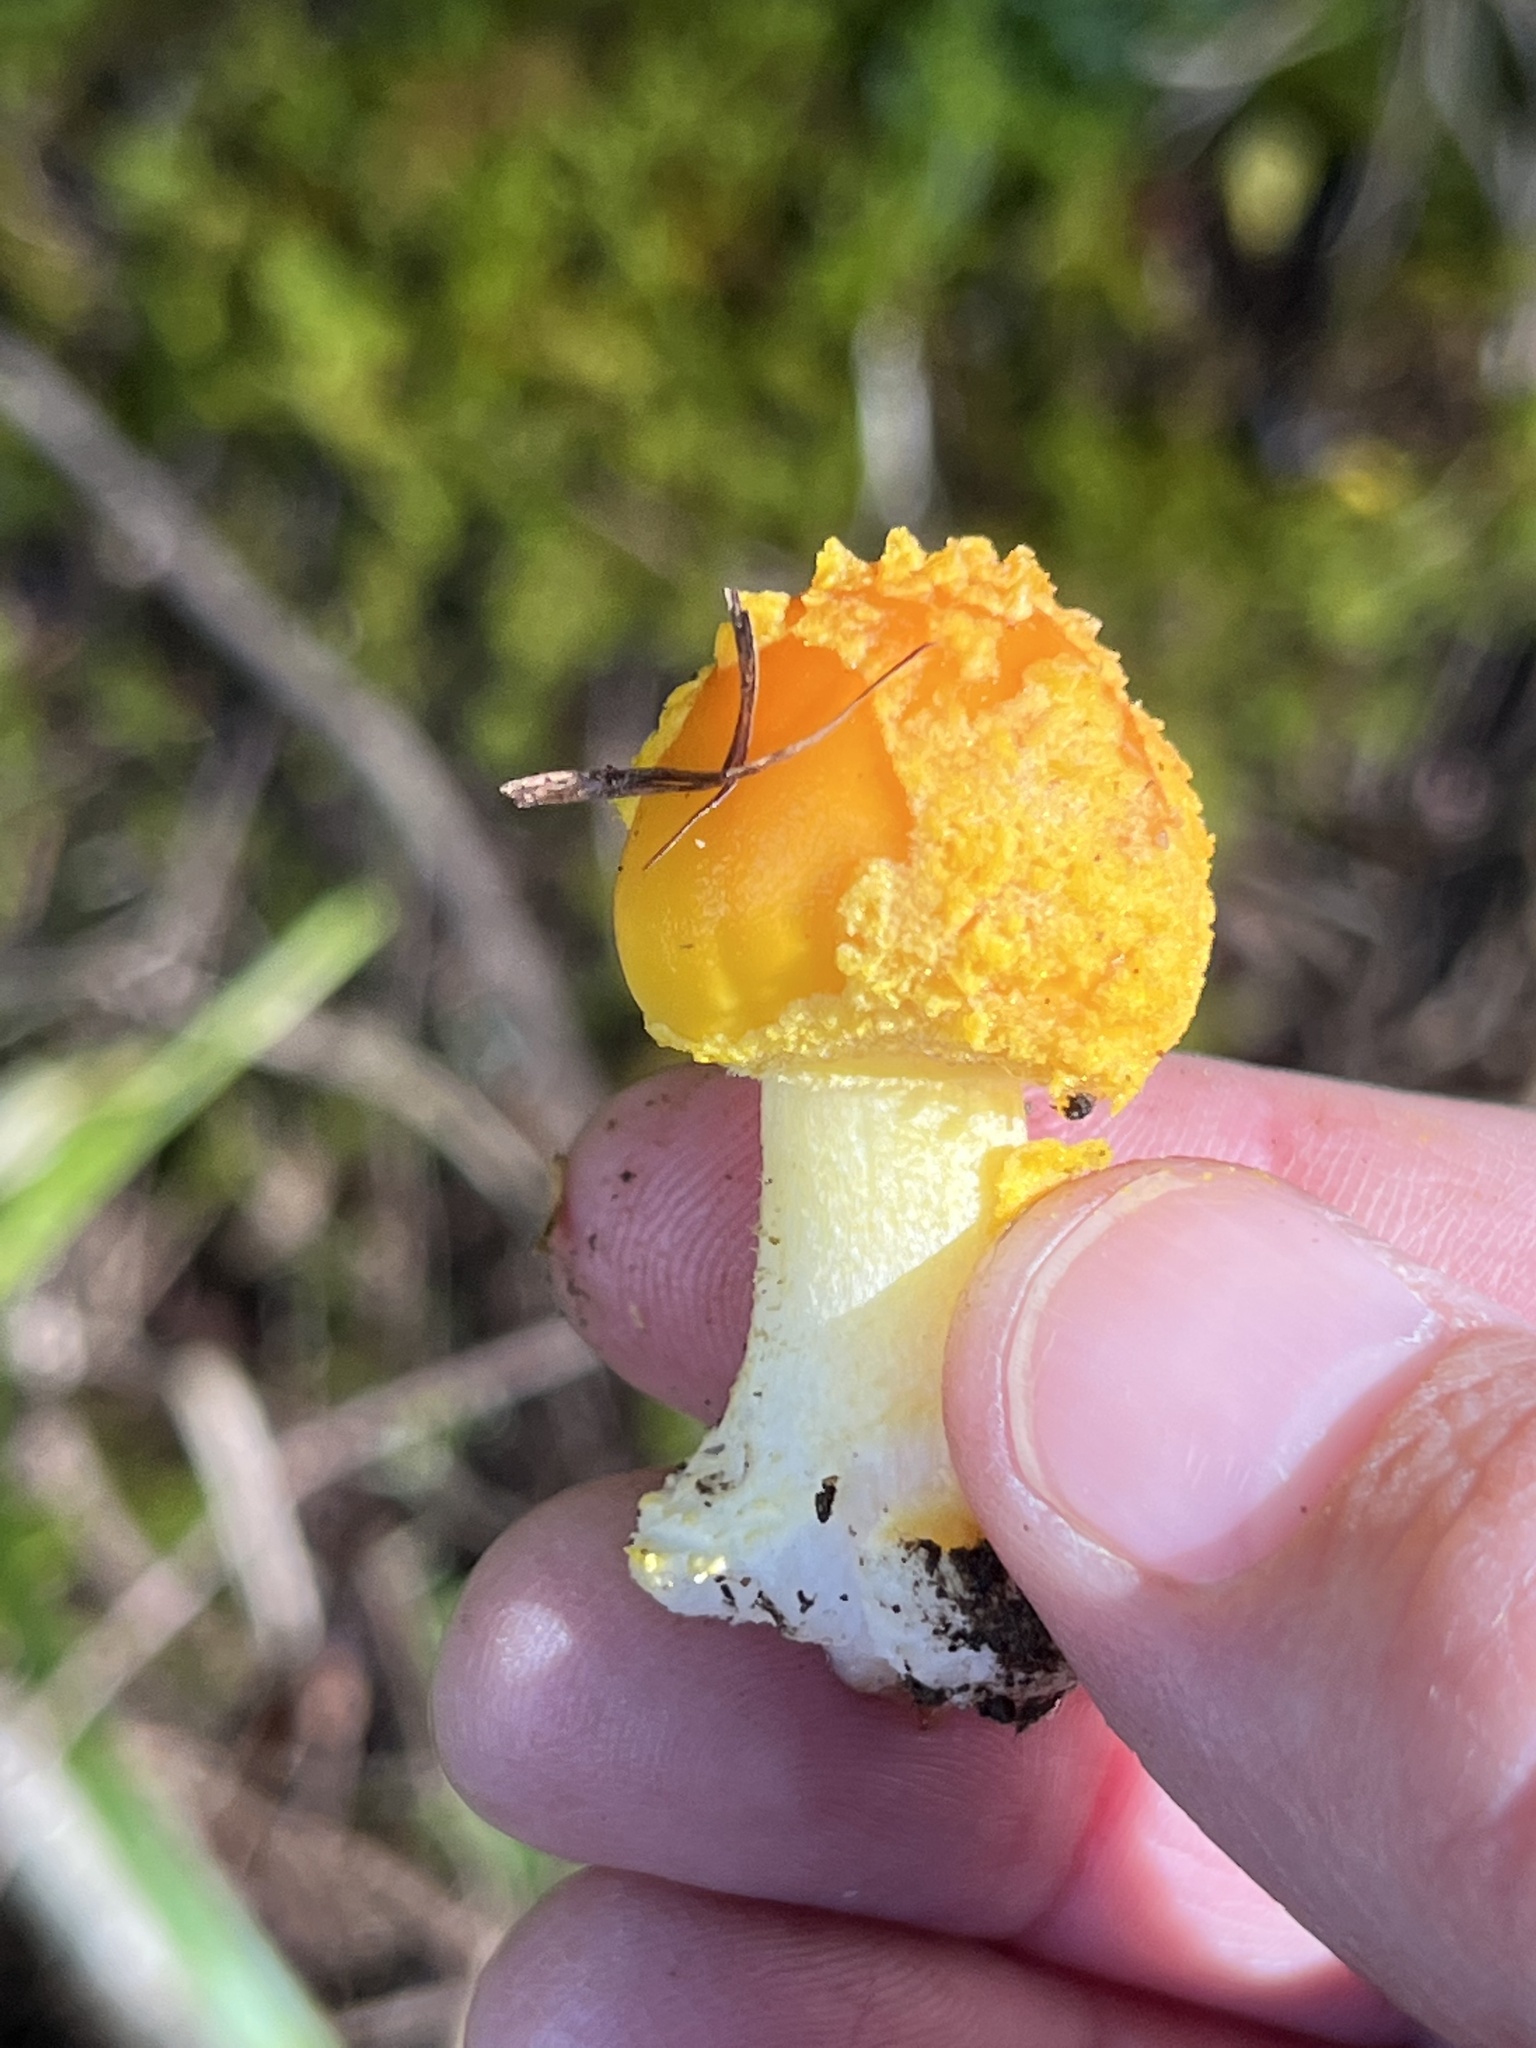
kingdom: Fungi
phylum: Basidiomycota
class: Agaricomycetes
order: Agaricales
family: Amanitaceae
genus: Amanita
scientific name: Amanita flavoconia
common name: Yellow patches
